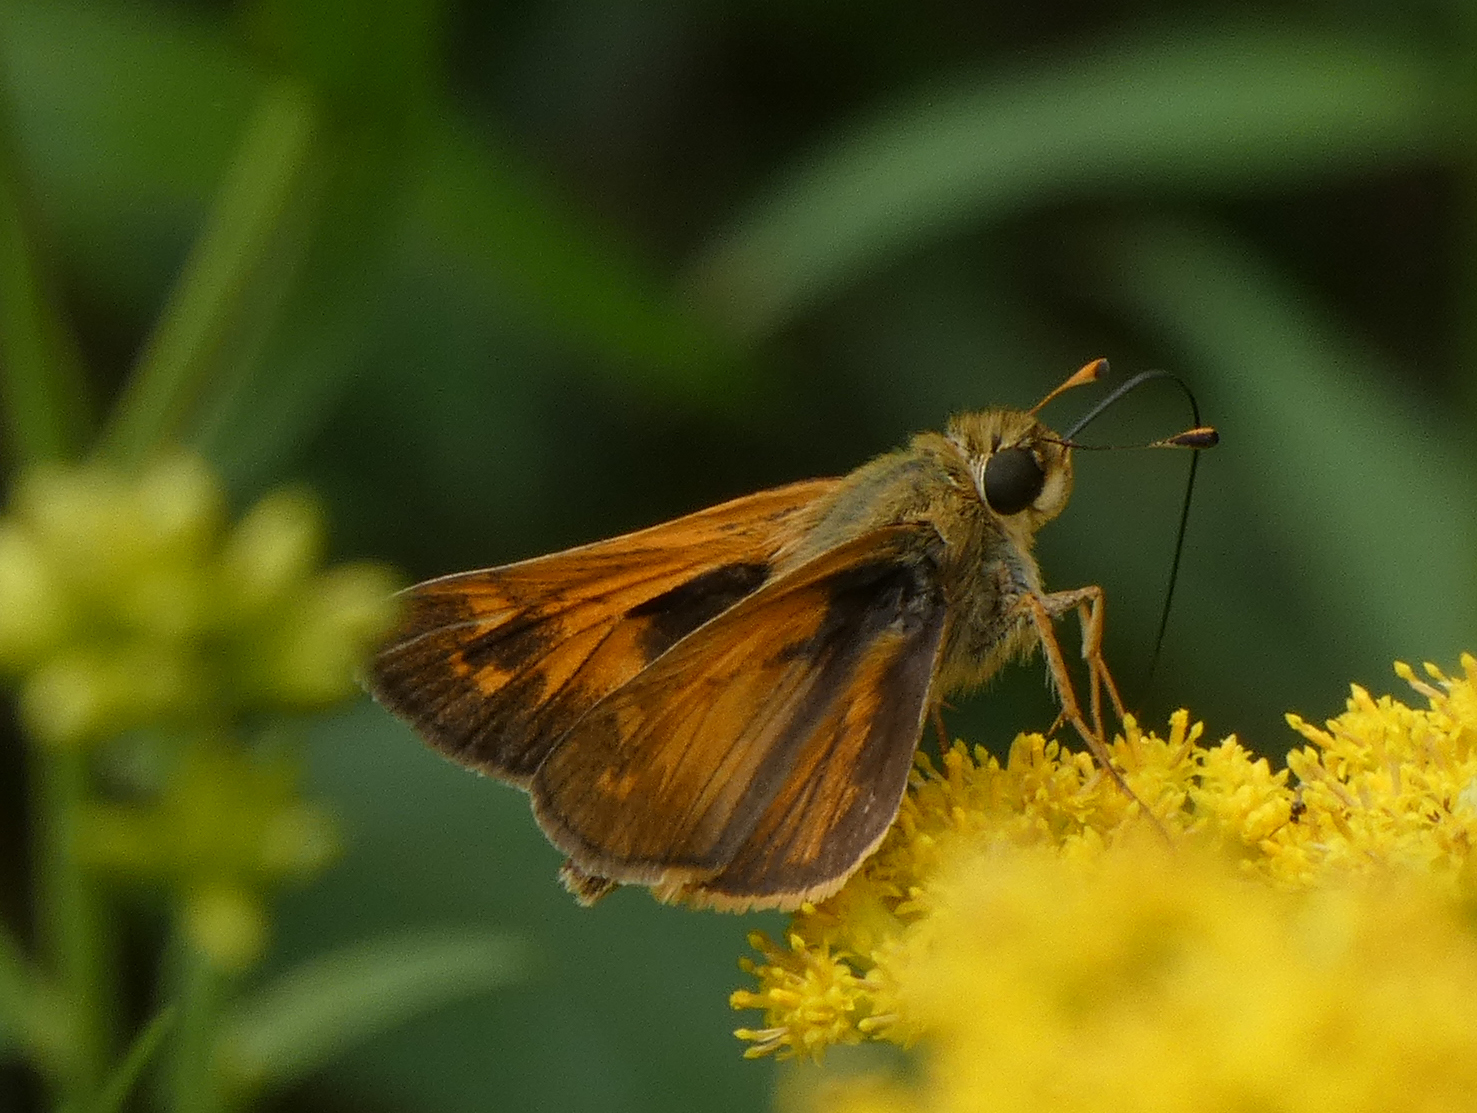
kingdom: Animalia
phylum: Arthropoda
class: Insecta
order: Lepidoptera
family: Hesperiidae
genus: Atalopedes
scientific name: Atalopedes
